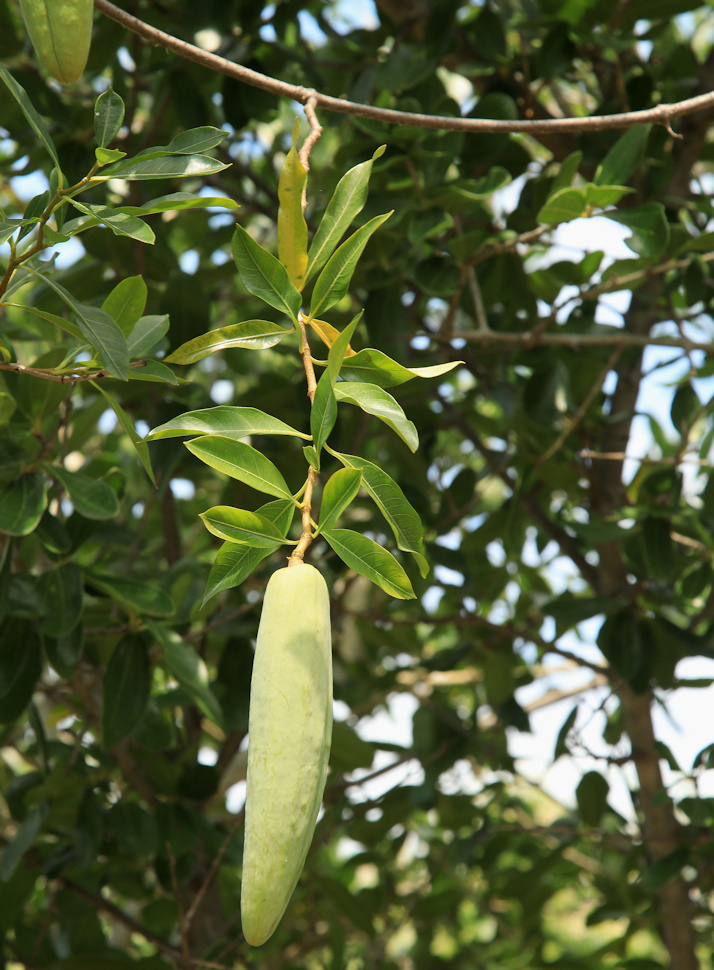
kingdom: Plantae
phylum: Tracheophyta
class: Magnoliopsida
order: Gentianales
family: Apocynaceae
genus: Stomatostemma
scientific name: Stomatostemma monteiroae
